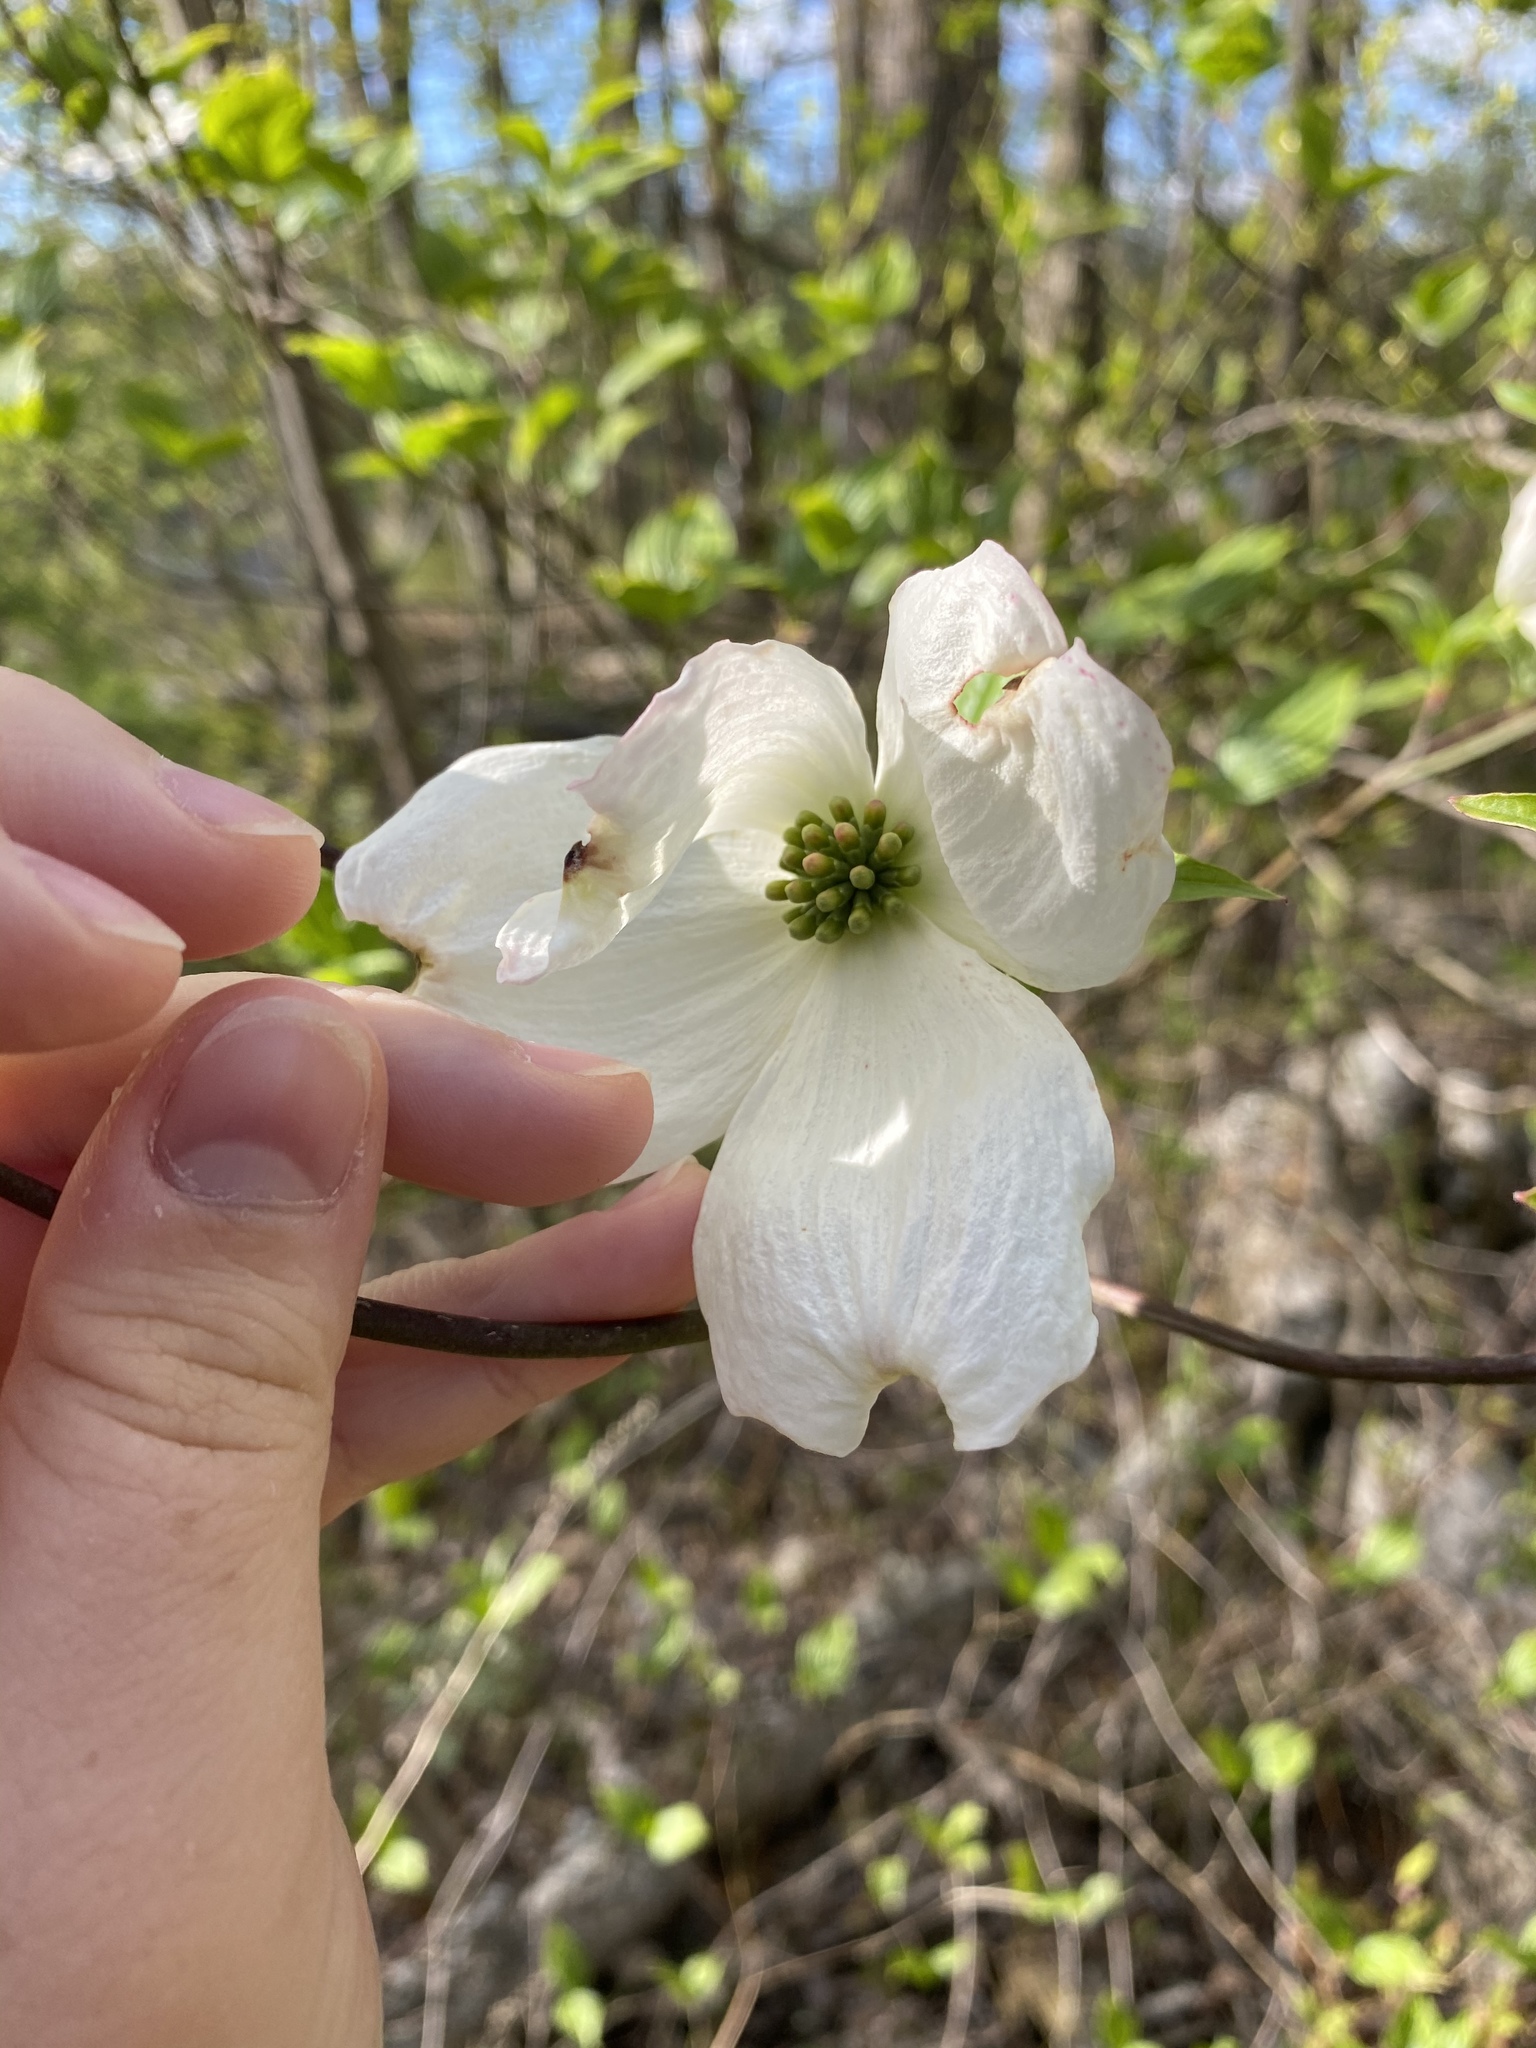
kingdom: Plantae
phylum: Tracheophyta
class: Magnoliopsida
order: Cornales
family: Cornaceae
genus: Cornus
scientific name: Cornus florida
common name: Flowering dogwood
